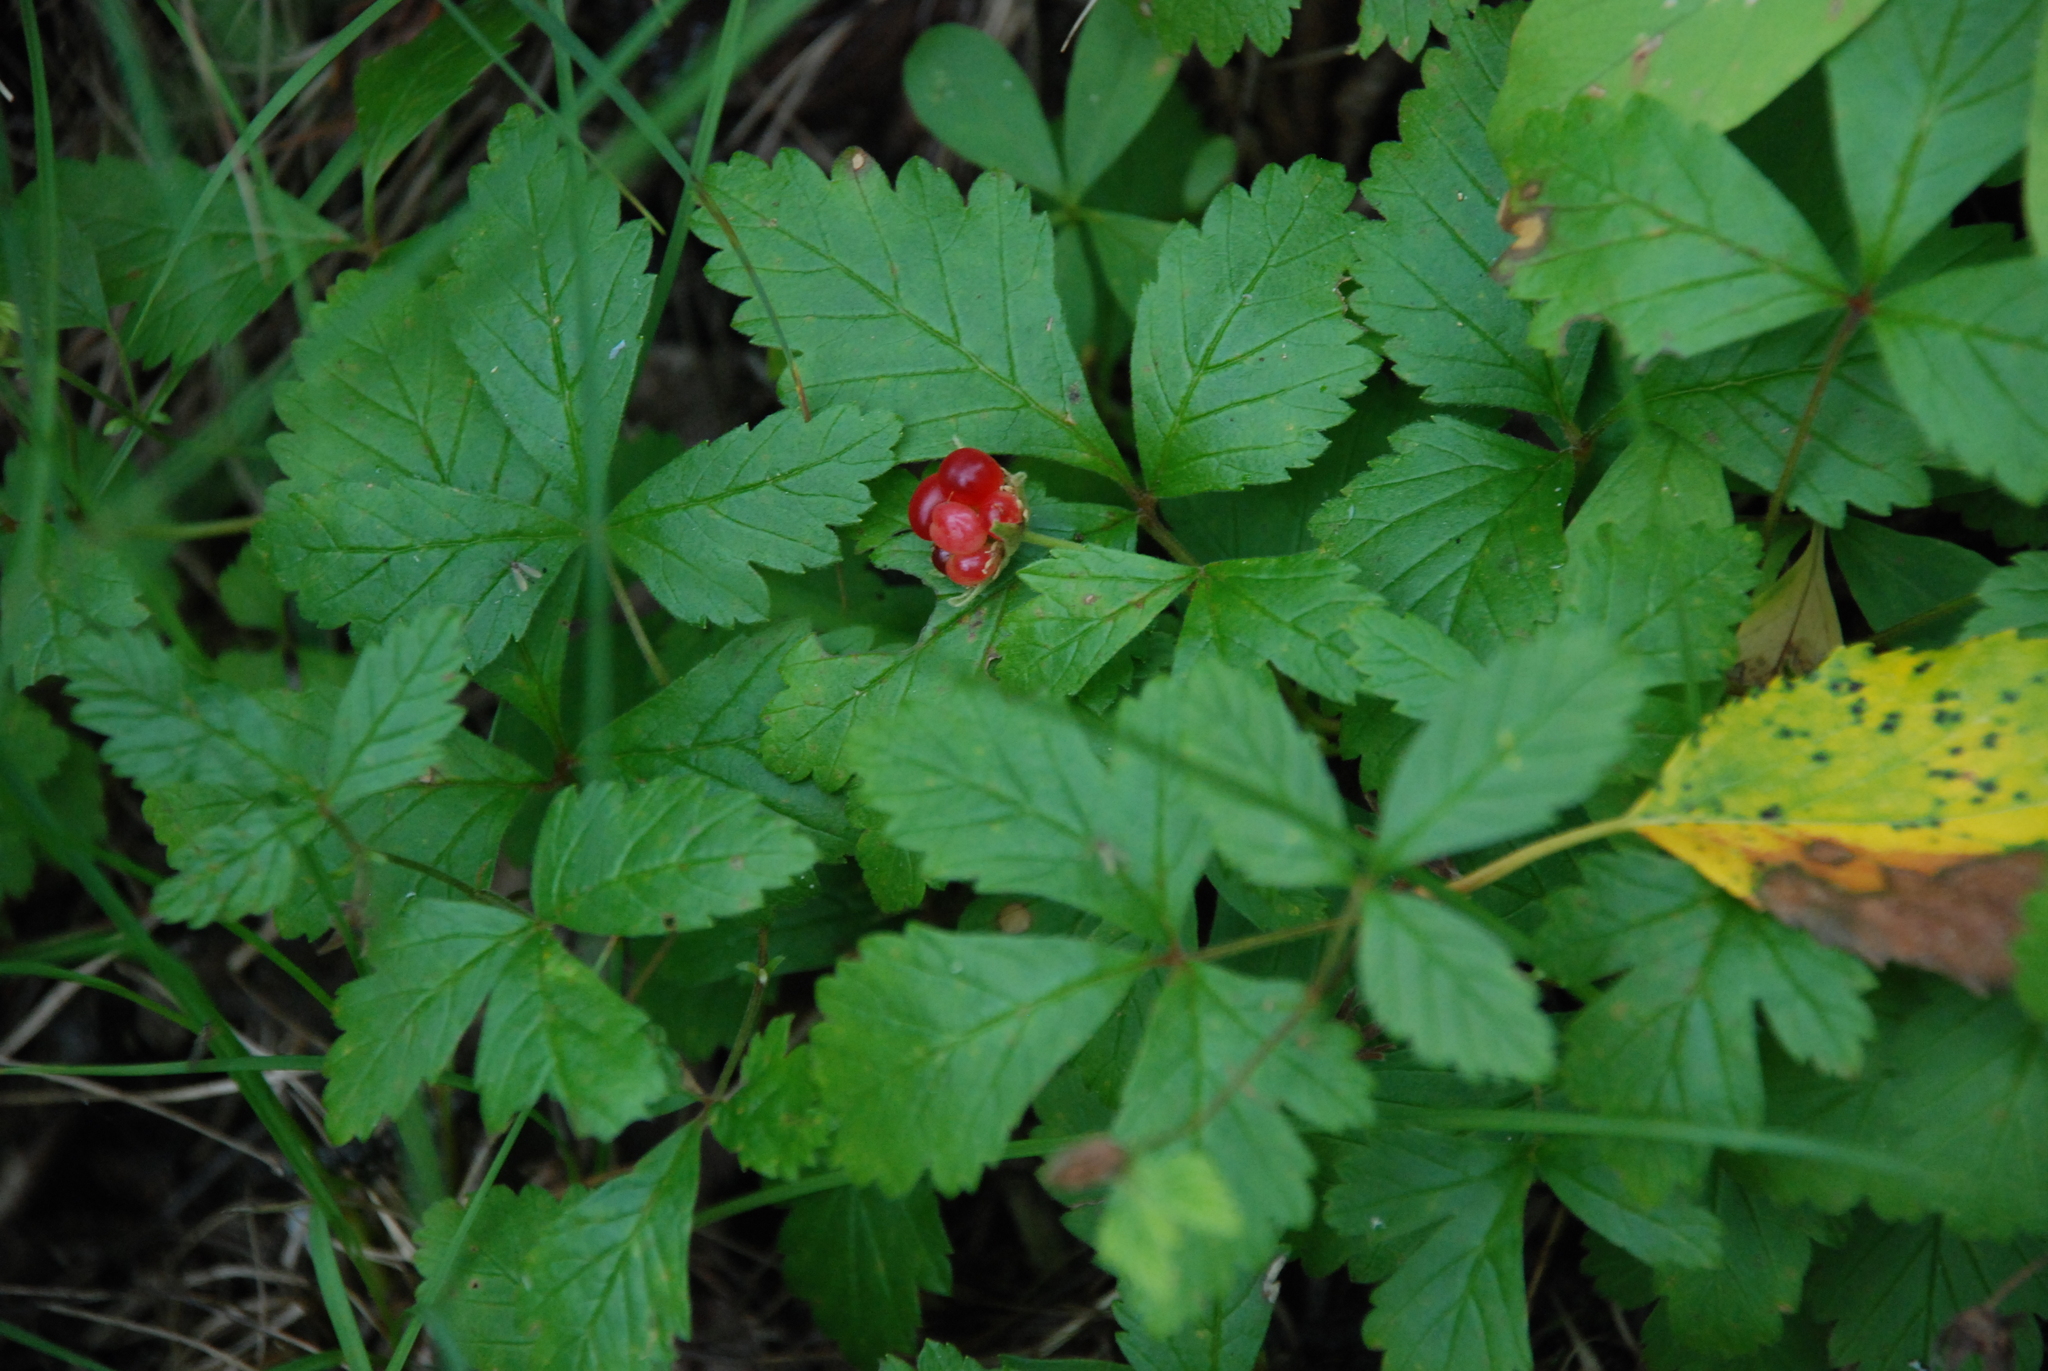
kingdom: Plantae
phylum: Tracheophyta
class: Magnoliopsida
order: Rosales
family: Rosaceae
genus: Rubus
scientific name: Rubus arcticus
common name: Arctic bramble
